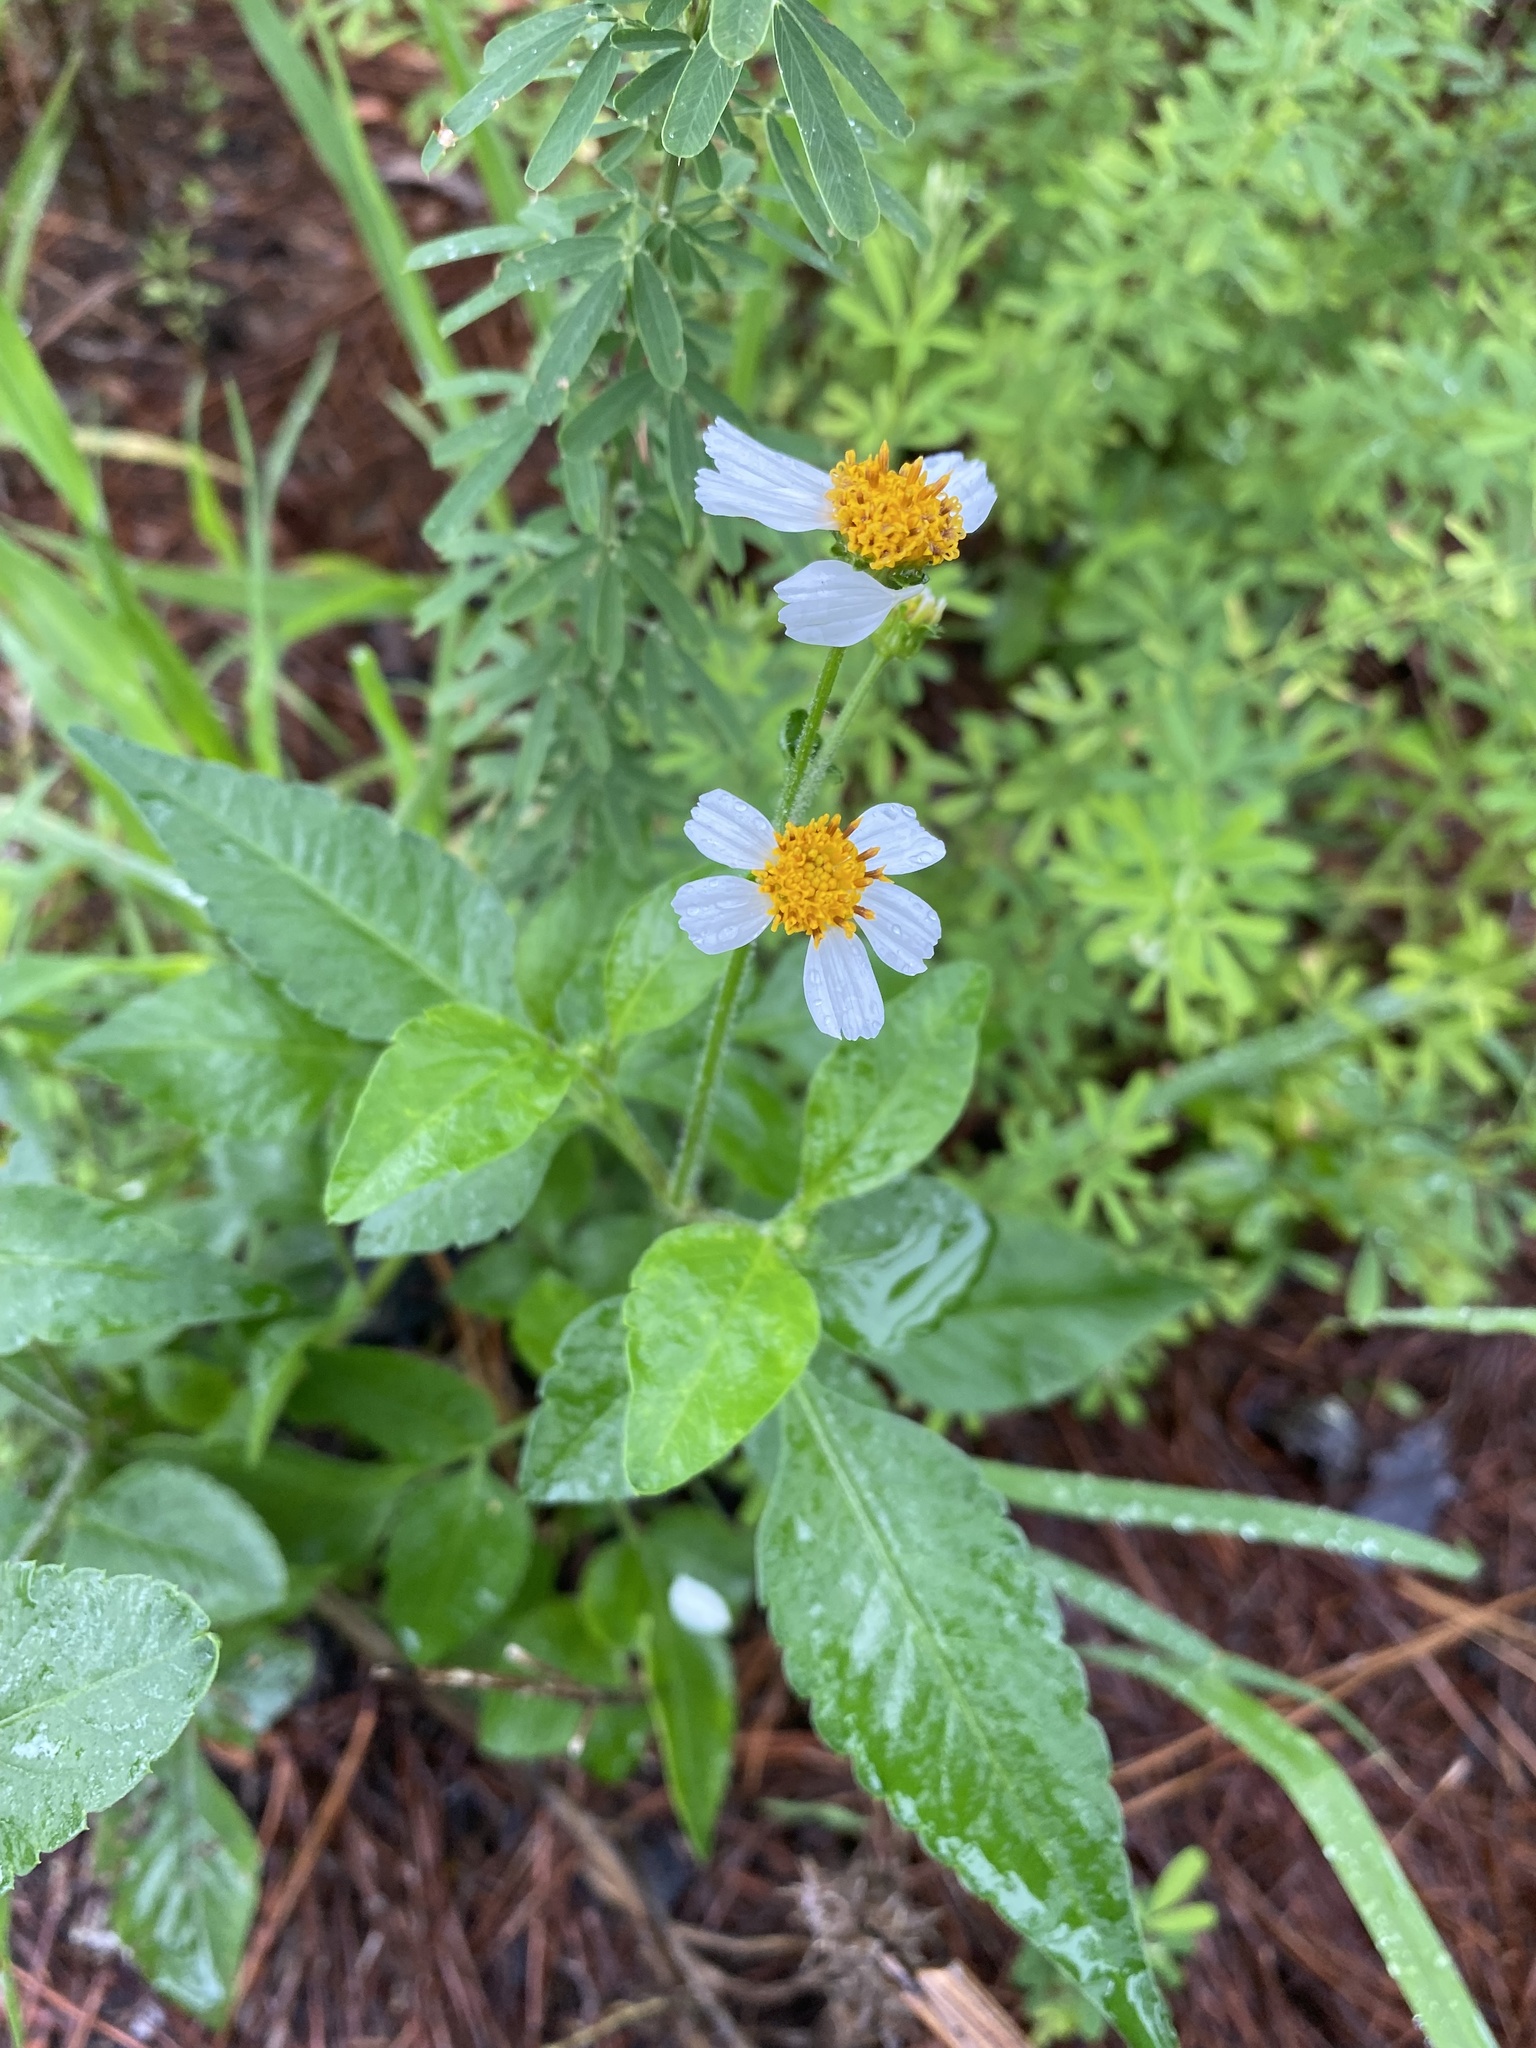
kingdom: Plantae
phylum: Tracheophyta
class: Magnoliopsida
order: Asterales
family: Asteraceae
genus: Bidens
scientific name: Bidens alba
